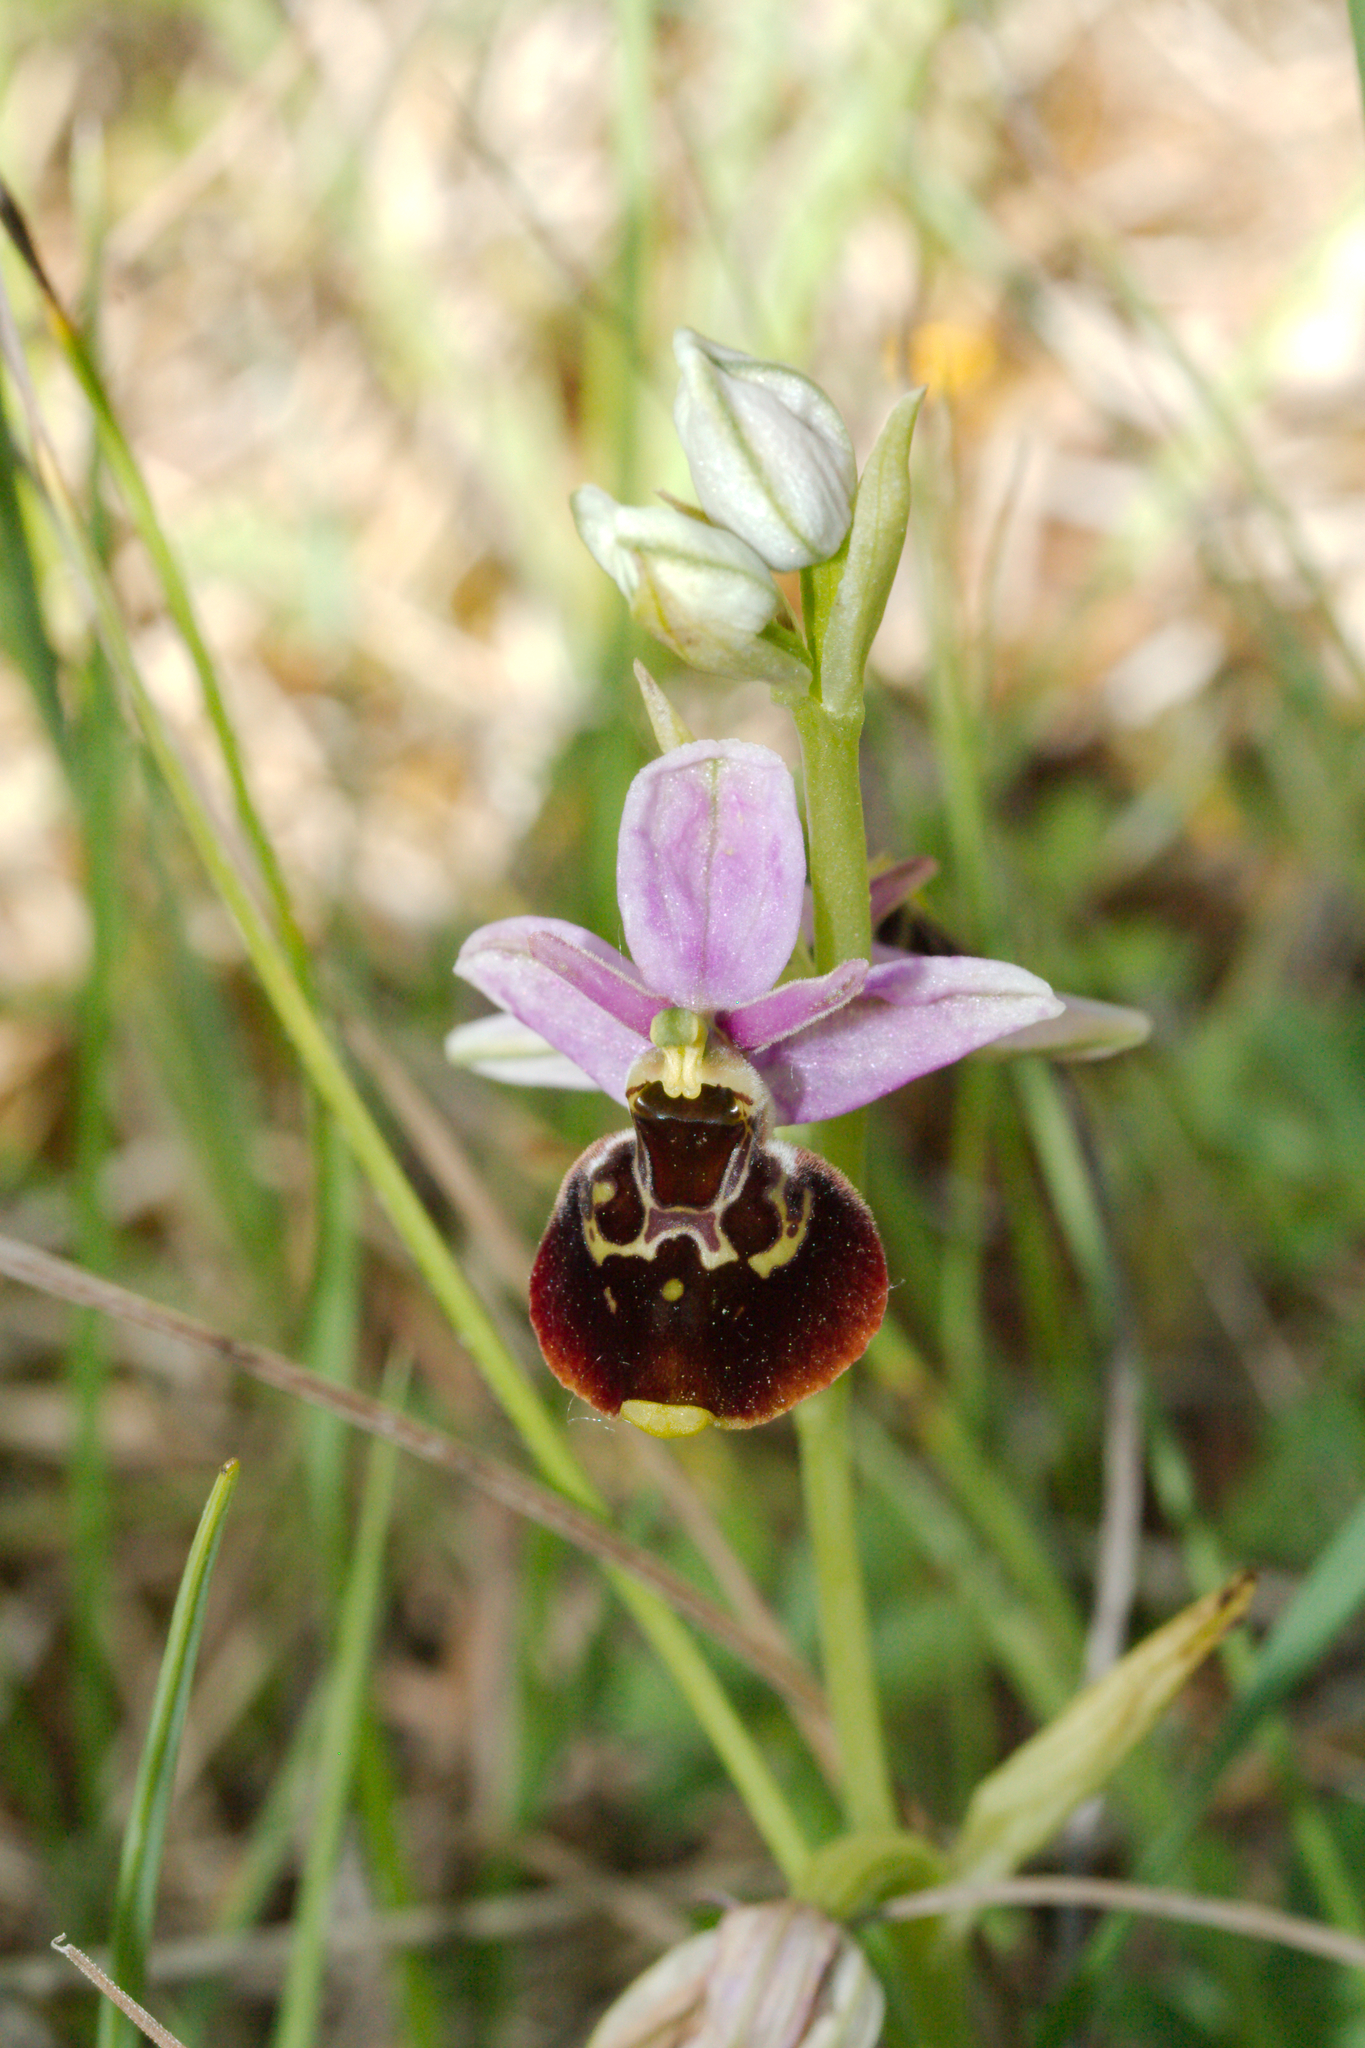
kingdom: Plantae
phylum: Tracheophyta
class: Liliopsida
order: Asparagales
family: Orchidaceae
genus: Ophrys
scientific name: Ophrys holosericea
